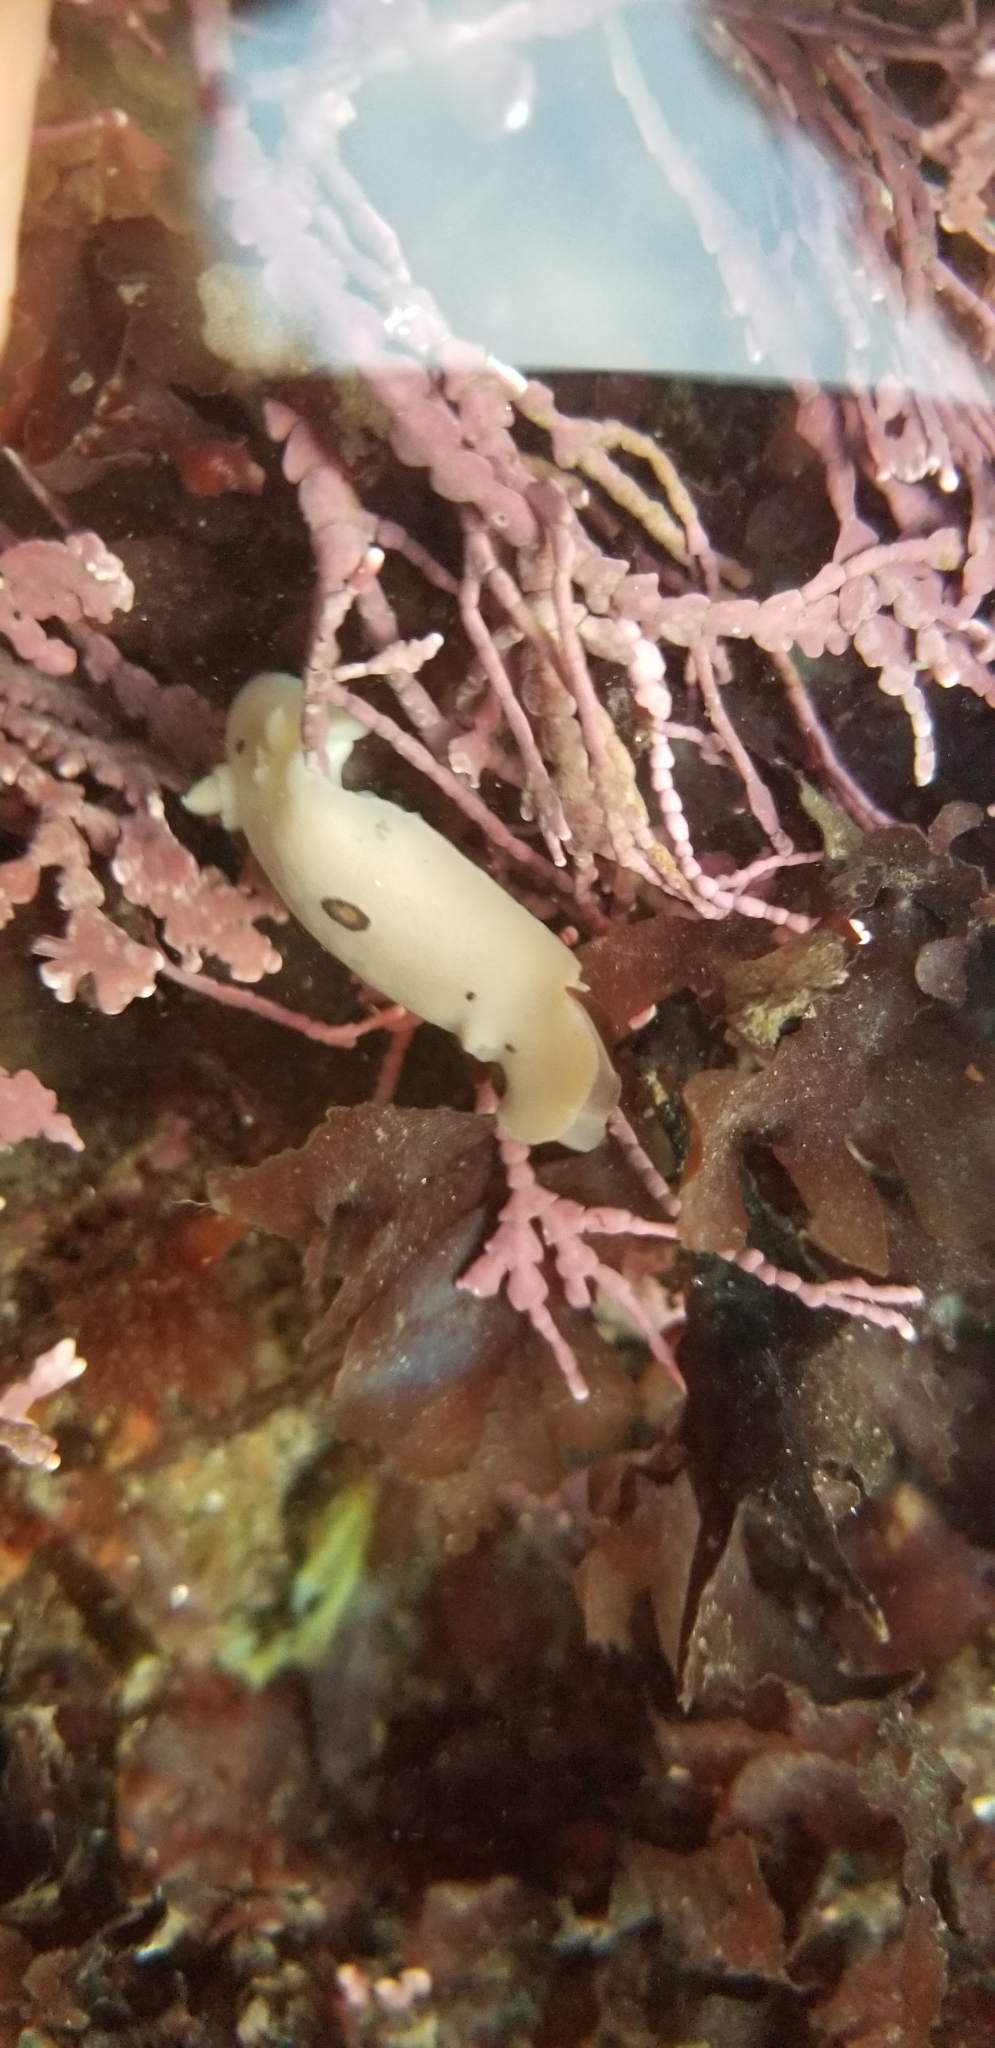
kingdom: Animalia
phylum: Mollusca
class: Gastropoda
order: Nudibranchia
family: Discodorididae
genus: Diaulula
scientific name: Diaulula sandiegensis
